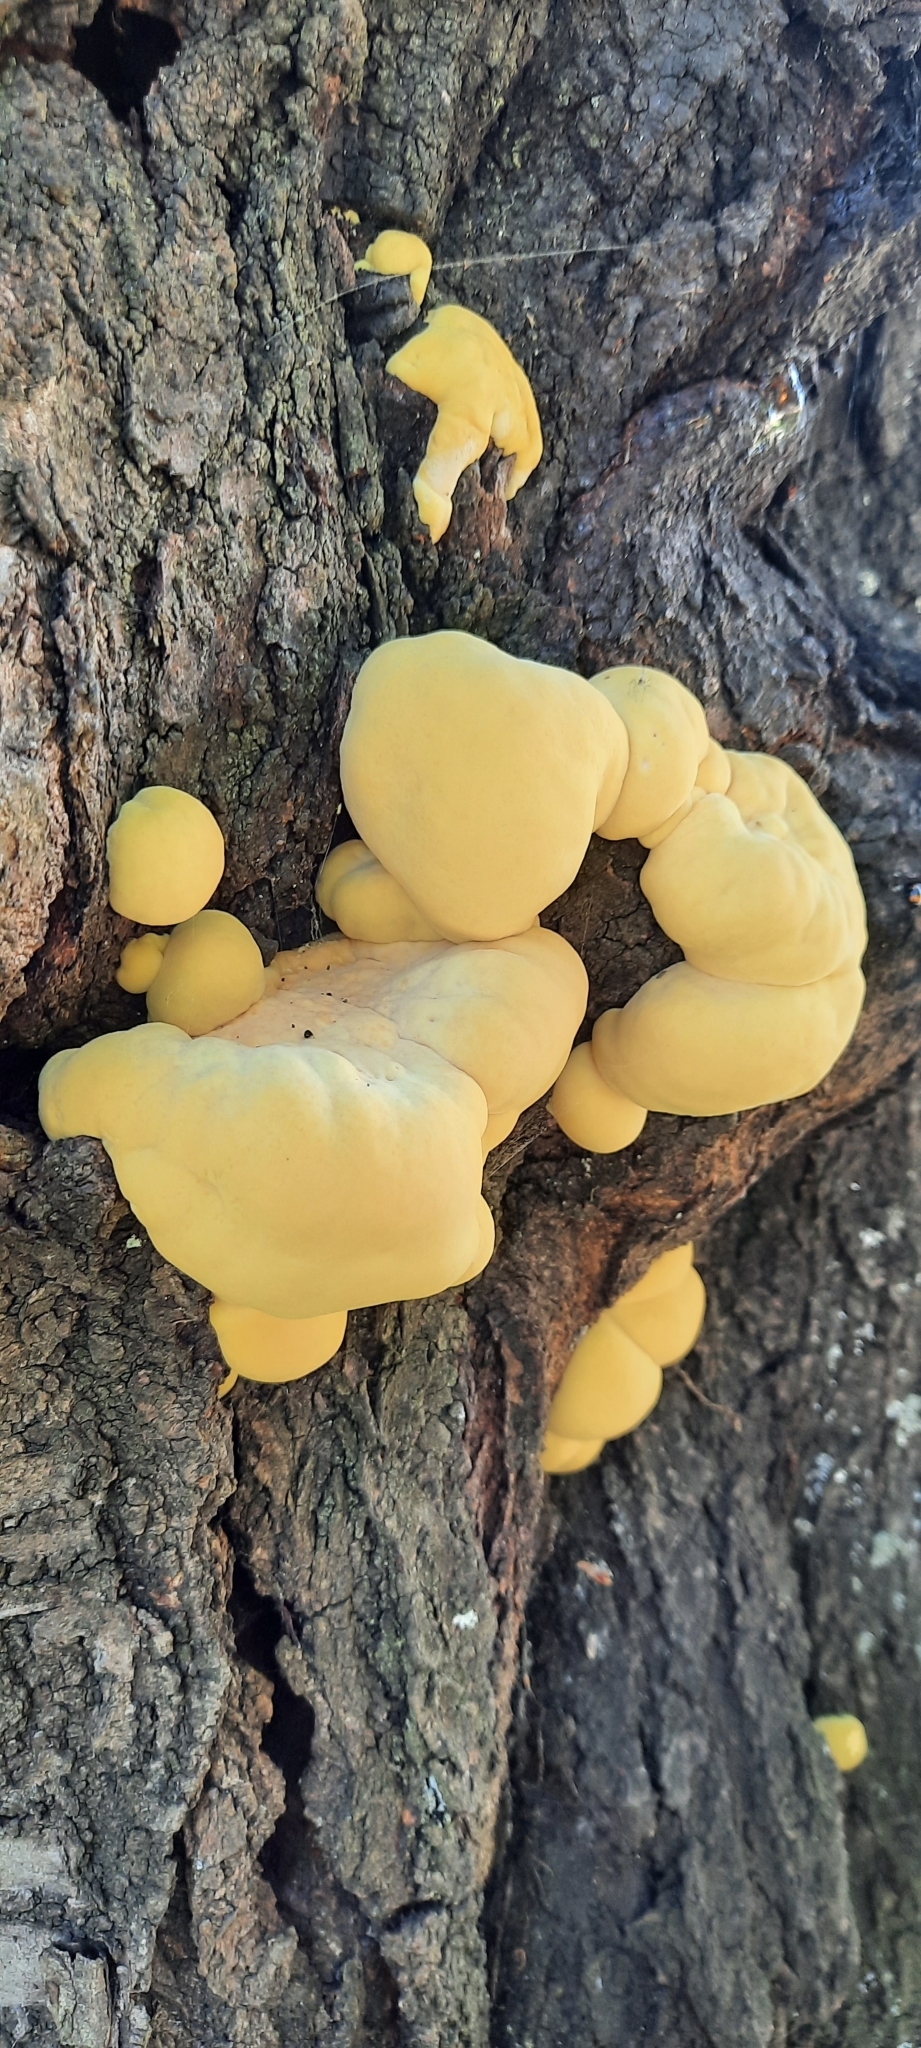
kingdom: Fungi
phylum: Basidiomycota
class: Agaricomycetes
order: Polyporales
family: Laetiporaceae
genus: Laetiporus
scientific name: Laetiporus sulphureus
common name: Chicken of the woods
